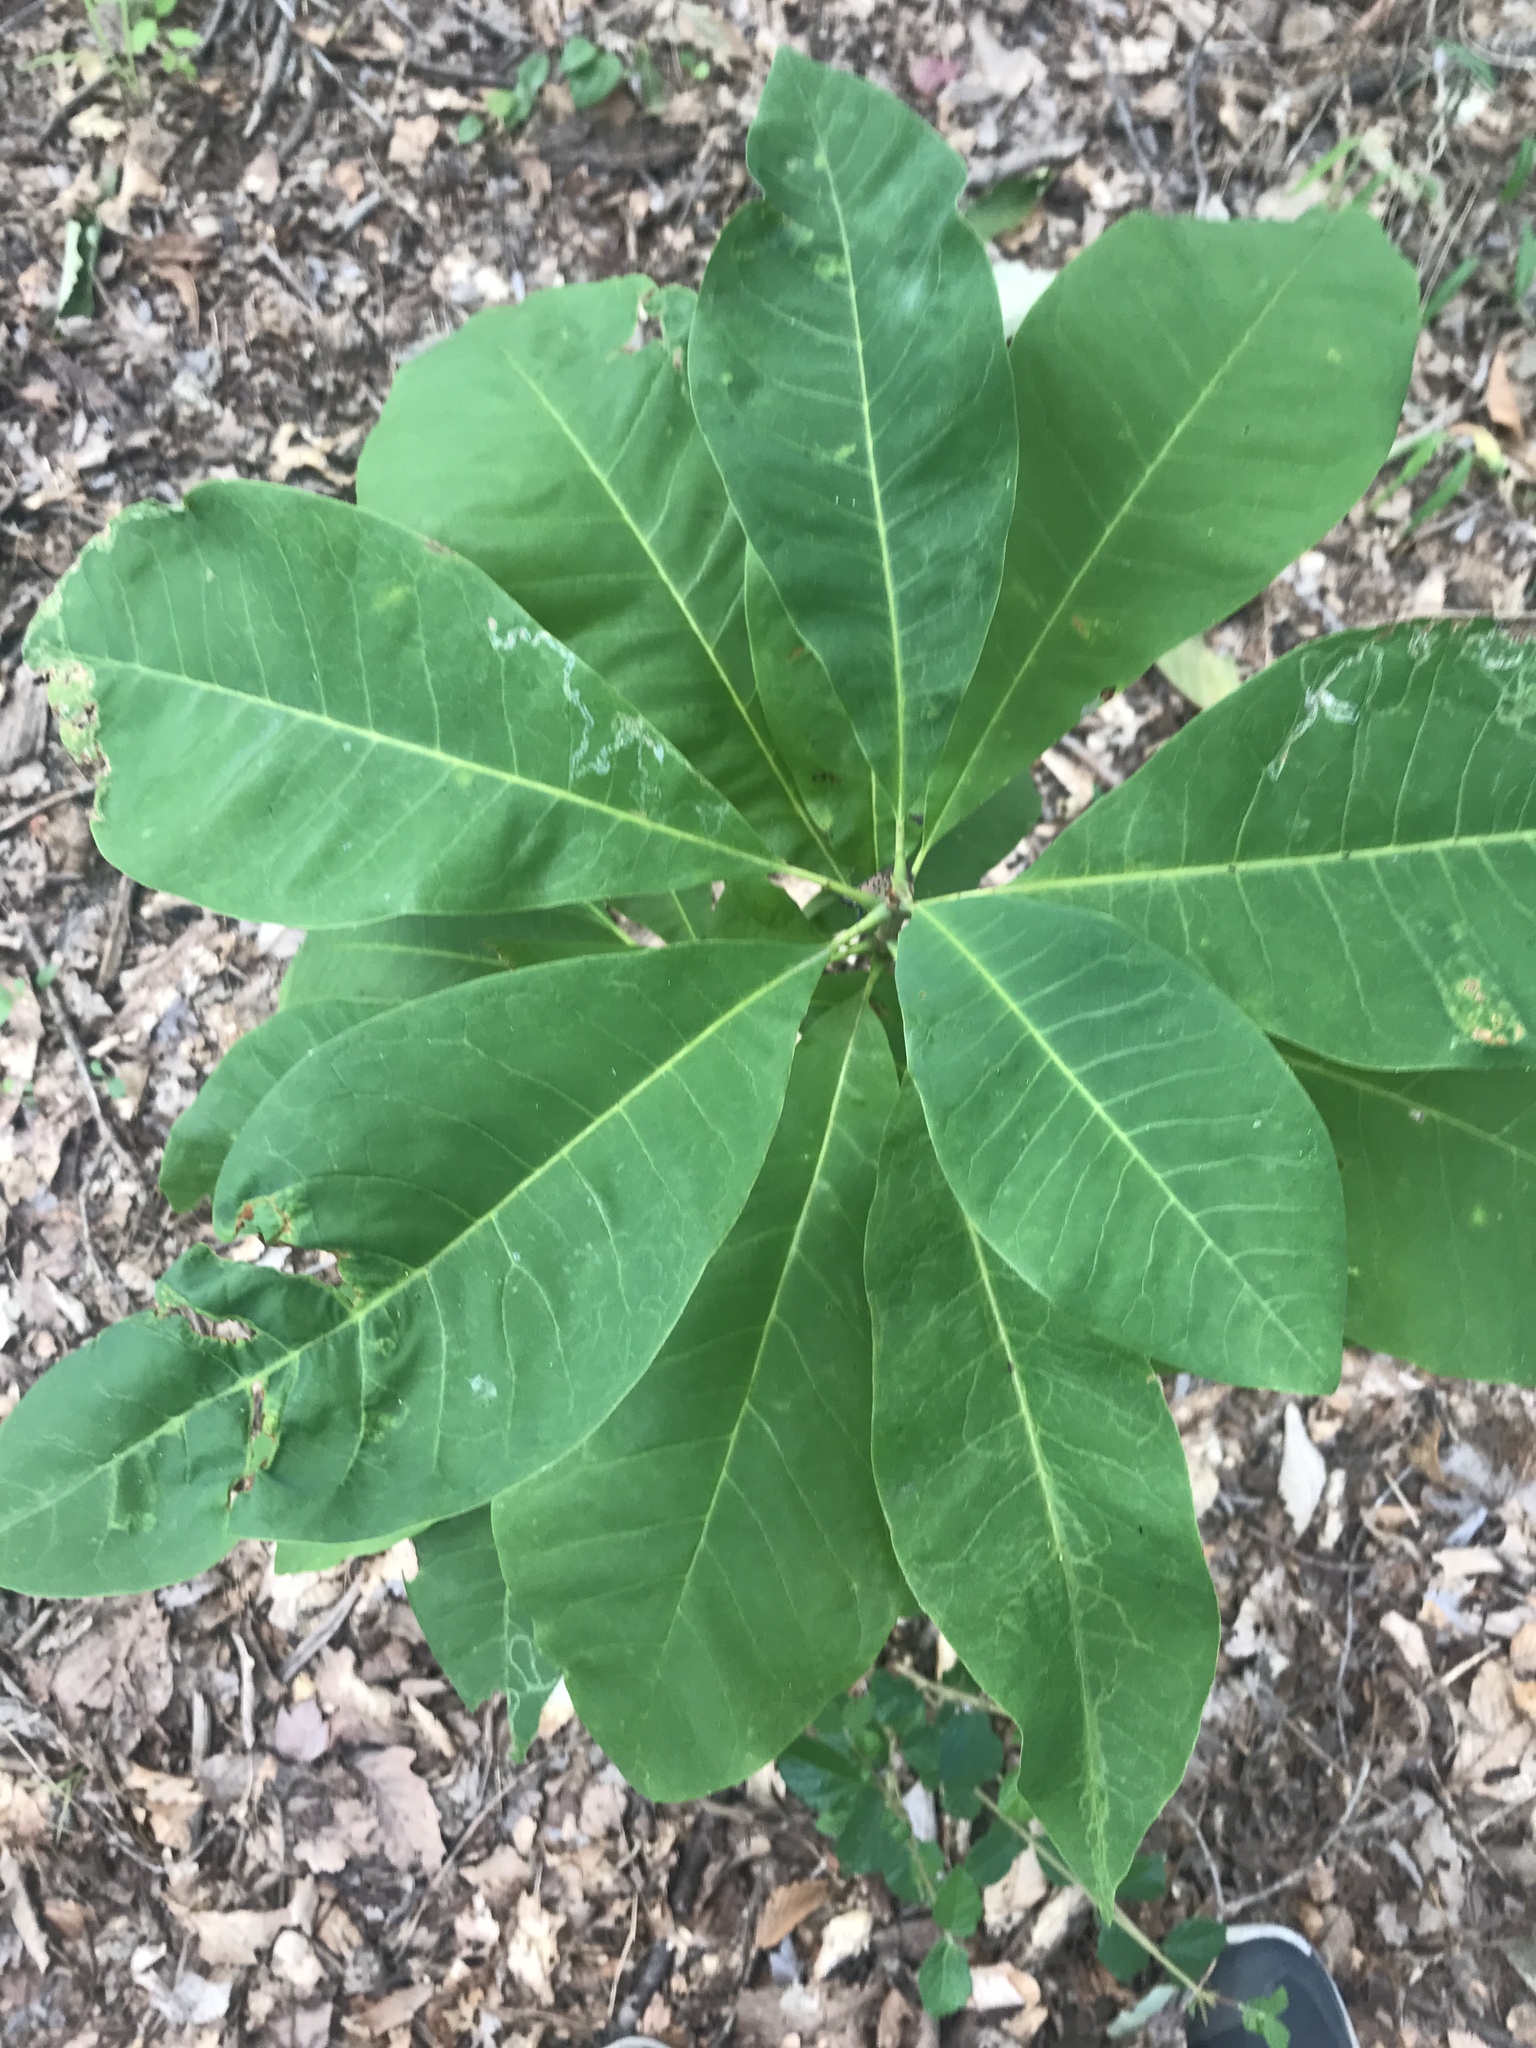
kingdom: Plantae
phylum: Tracheophyta
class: Magnoliopsida
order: Magnoliales
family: Magnoliaceae
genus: Magnolia
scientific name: Magnolia tripetala
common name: Umbrella magnolia
